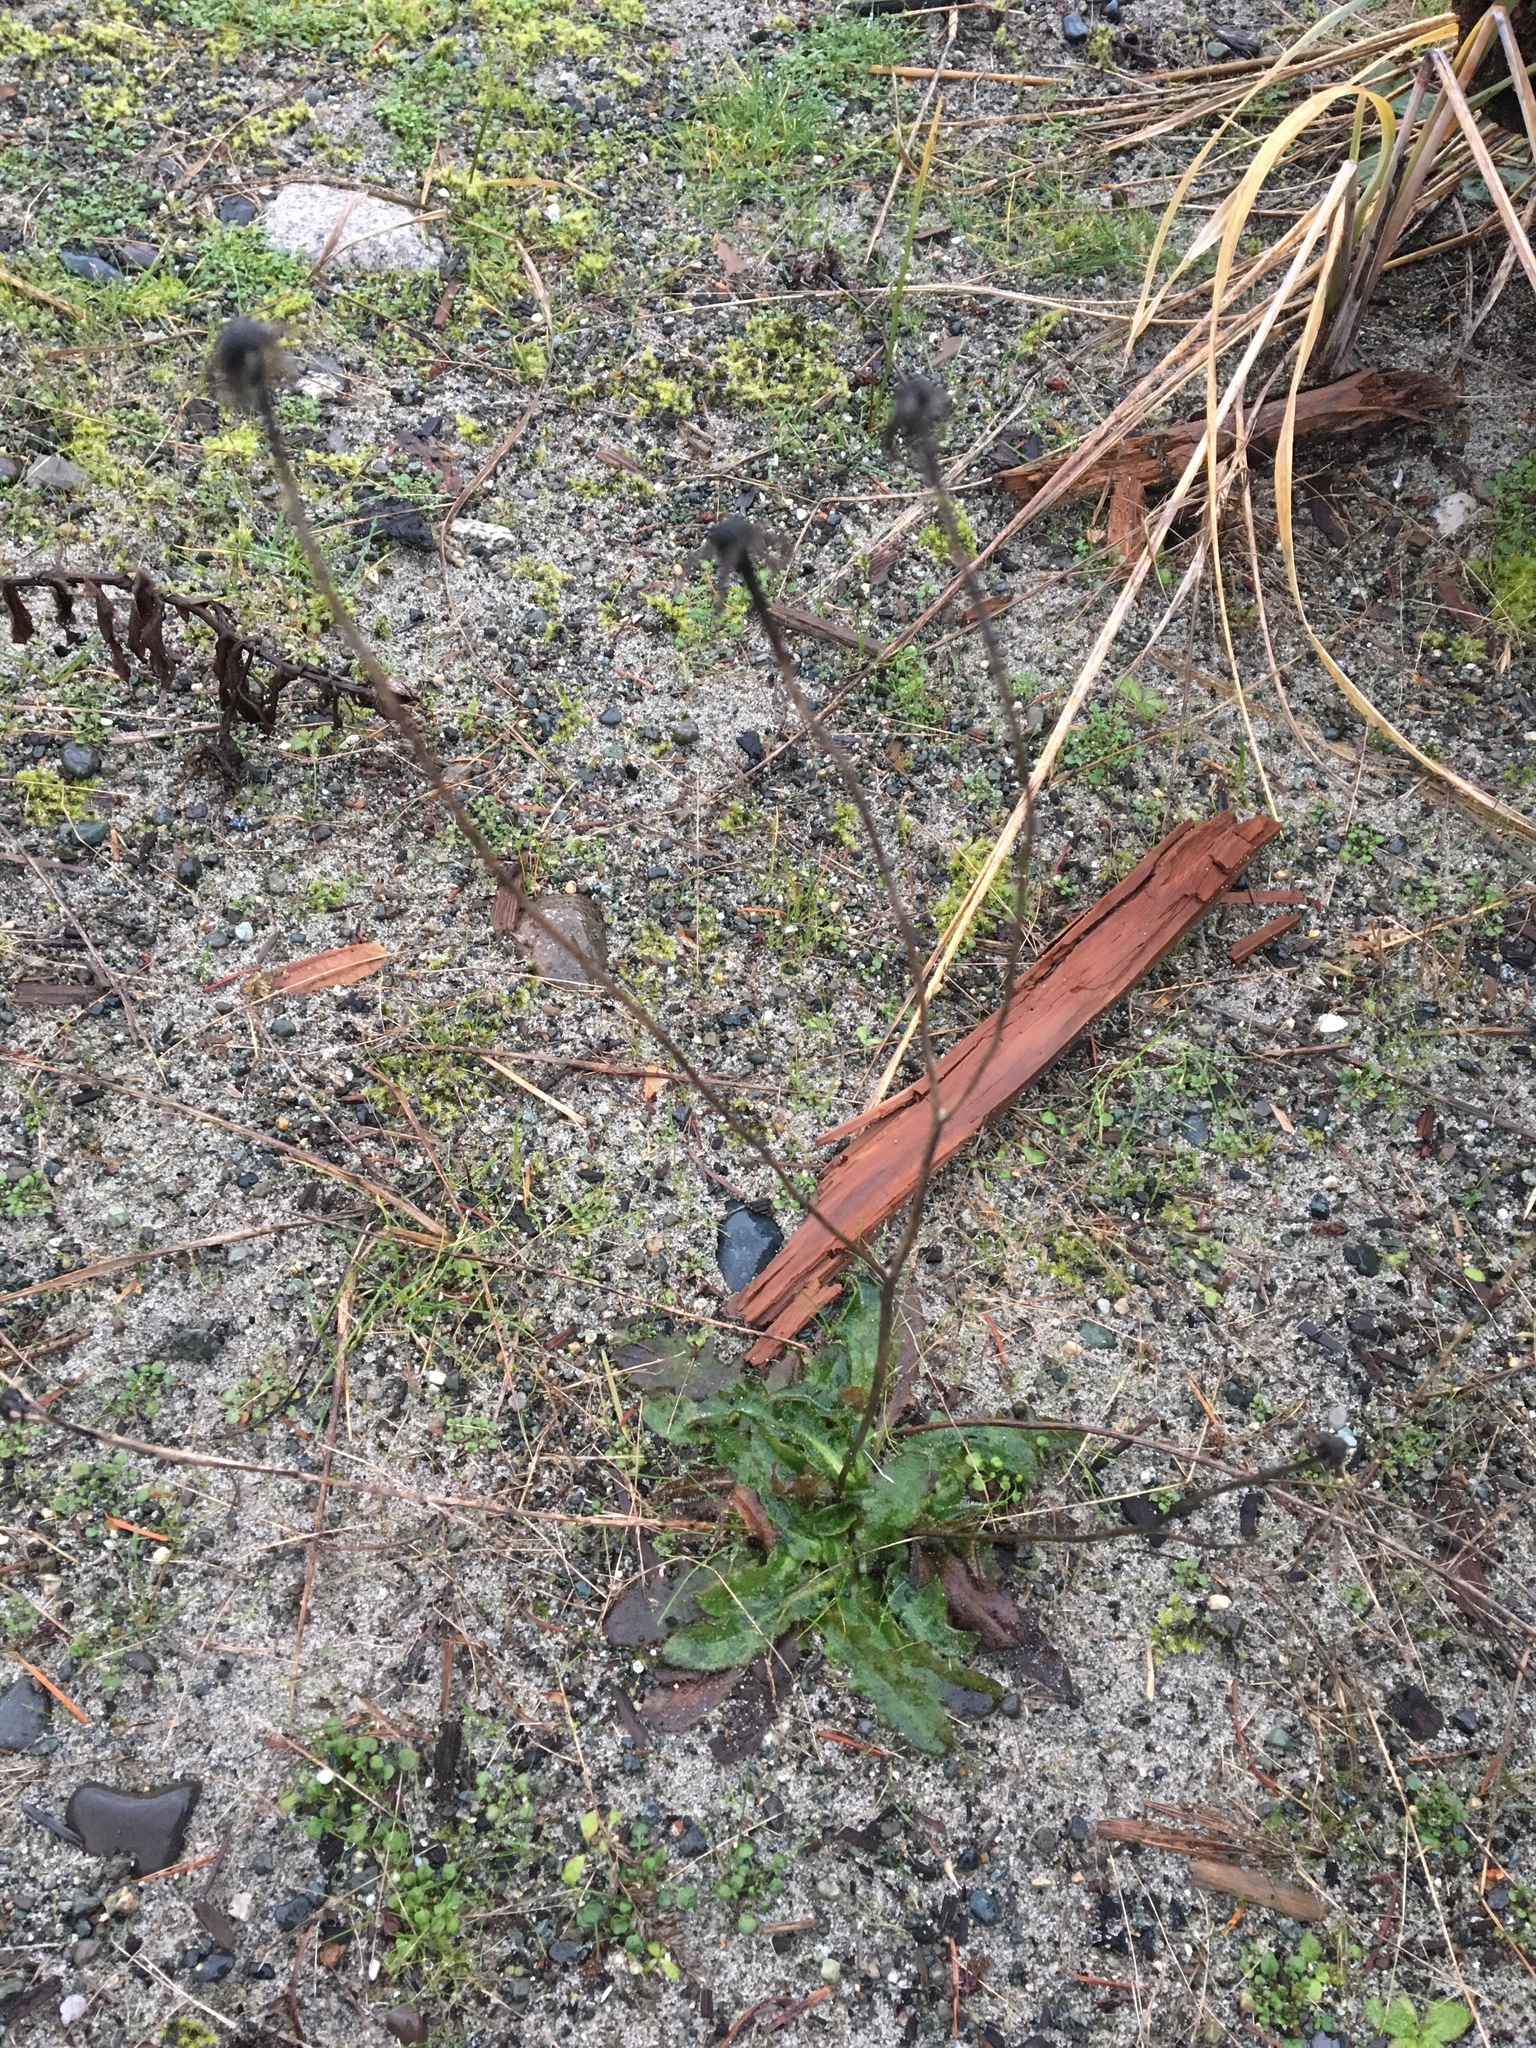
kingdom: Plantae
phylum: Tracheophyta
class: Magnoliopsida
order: Asterales
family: Asteraceae
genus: Hypochaeris
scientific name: Hypochaeris radicata
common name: Flatweed
